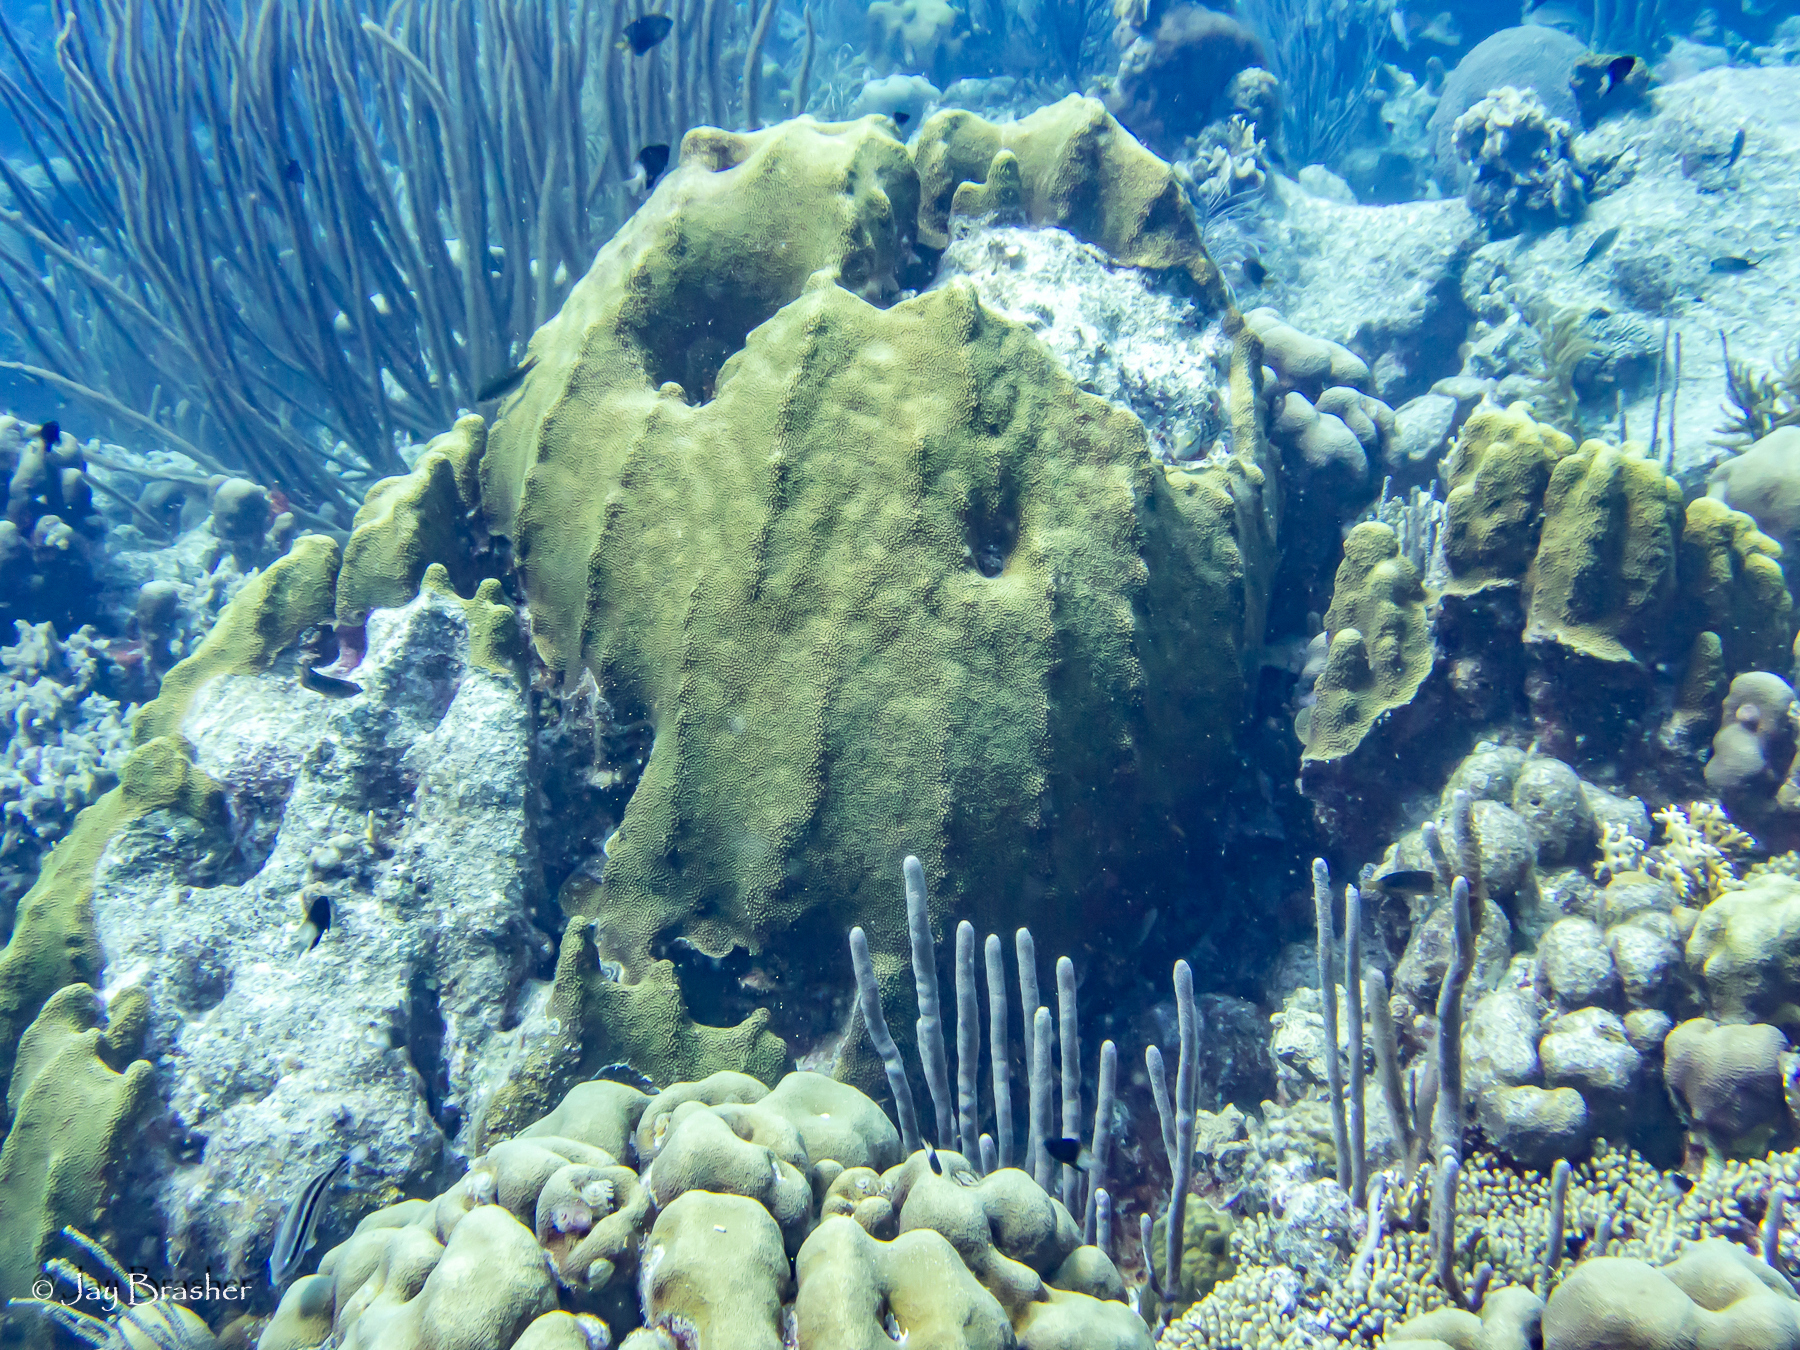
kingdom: Animalia
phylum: Cnidaria
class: Anthozoa
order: Scleractinia
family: Merulinidae
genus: Orbicella
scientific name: Orbicella faveolata
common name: Mountainous star coral
